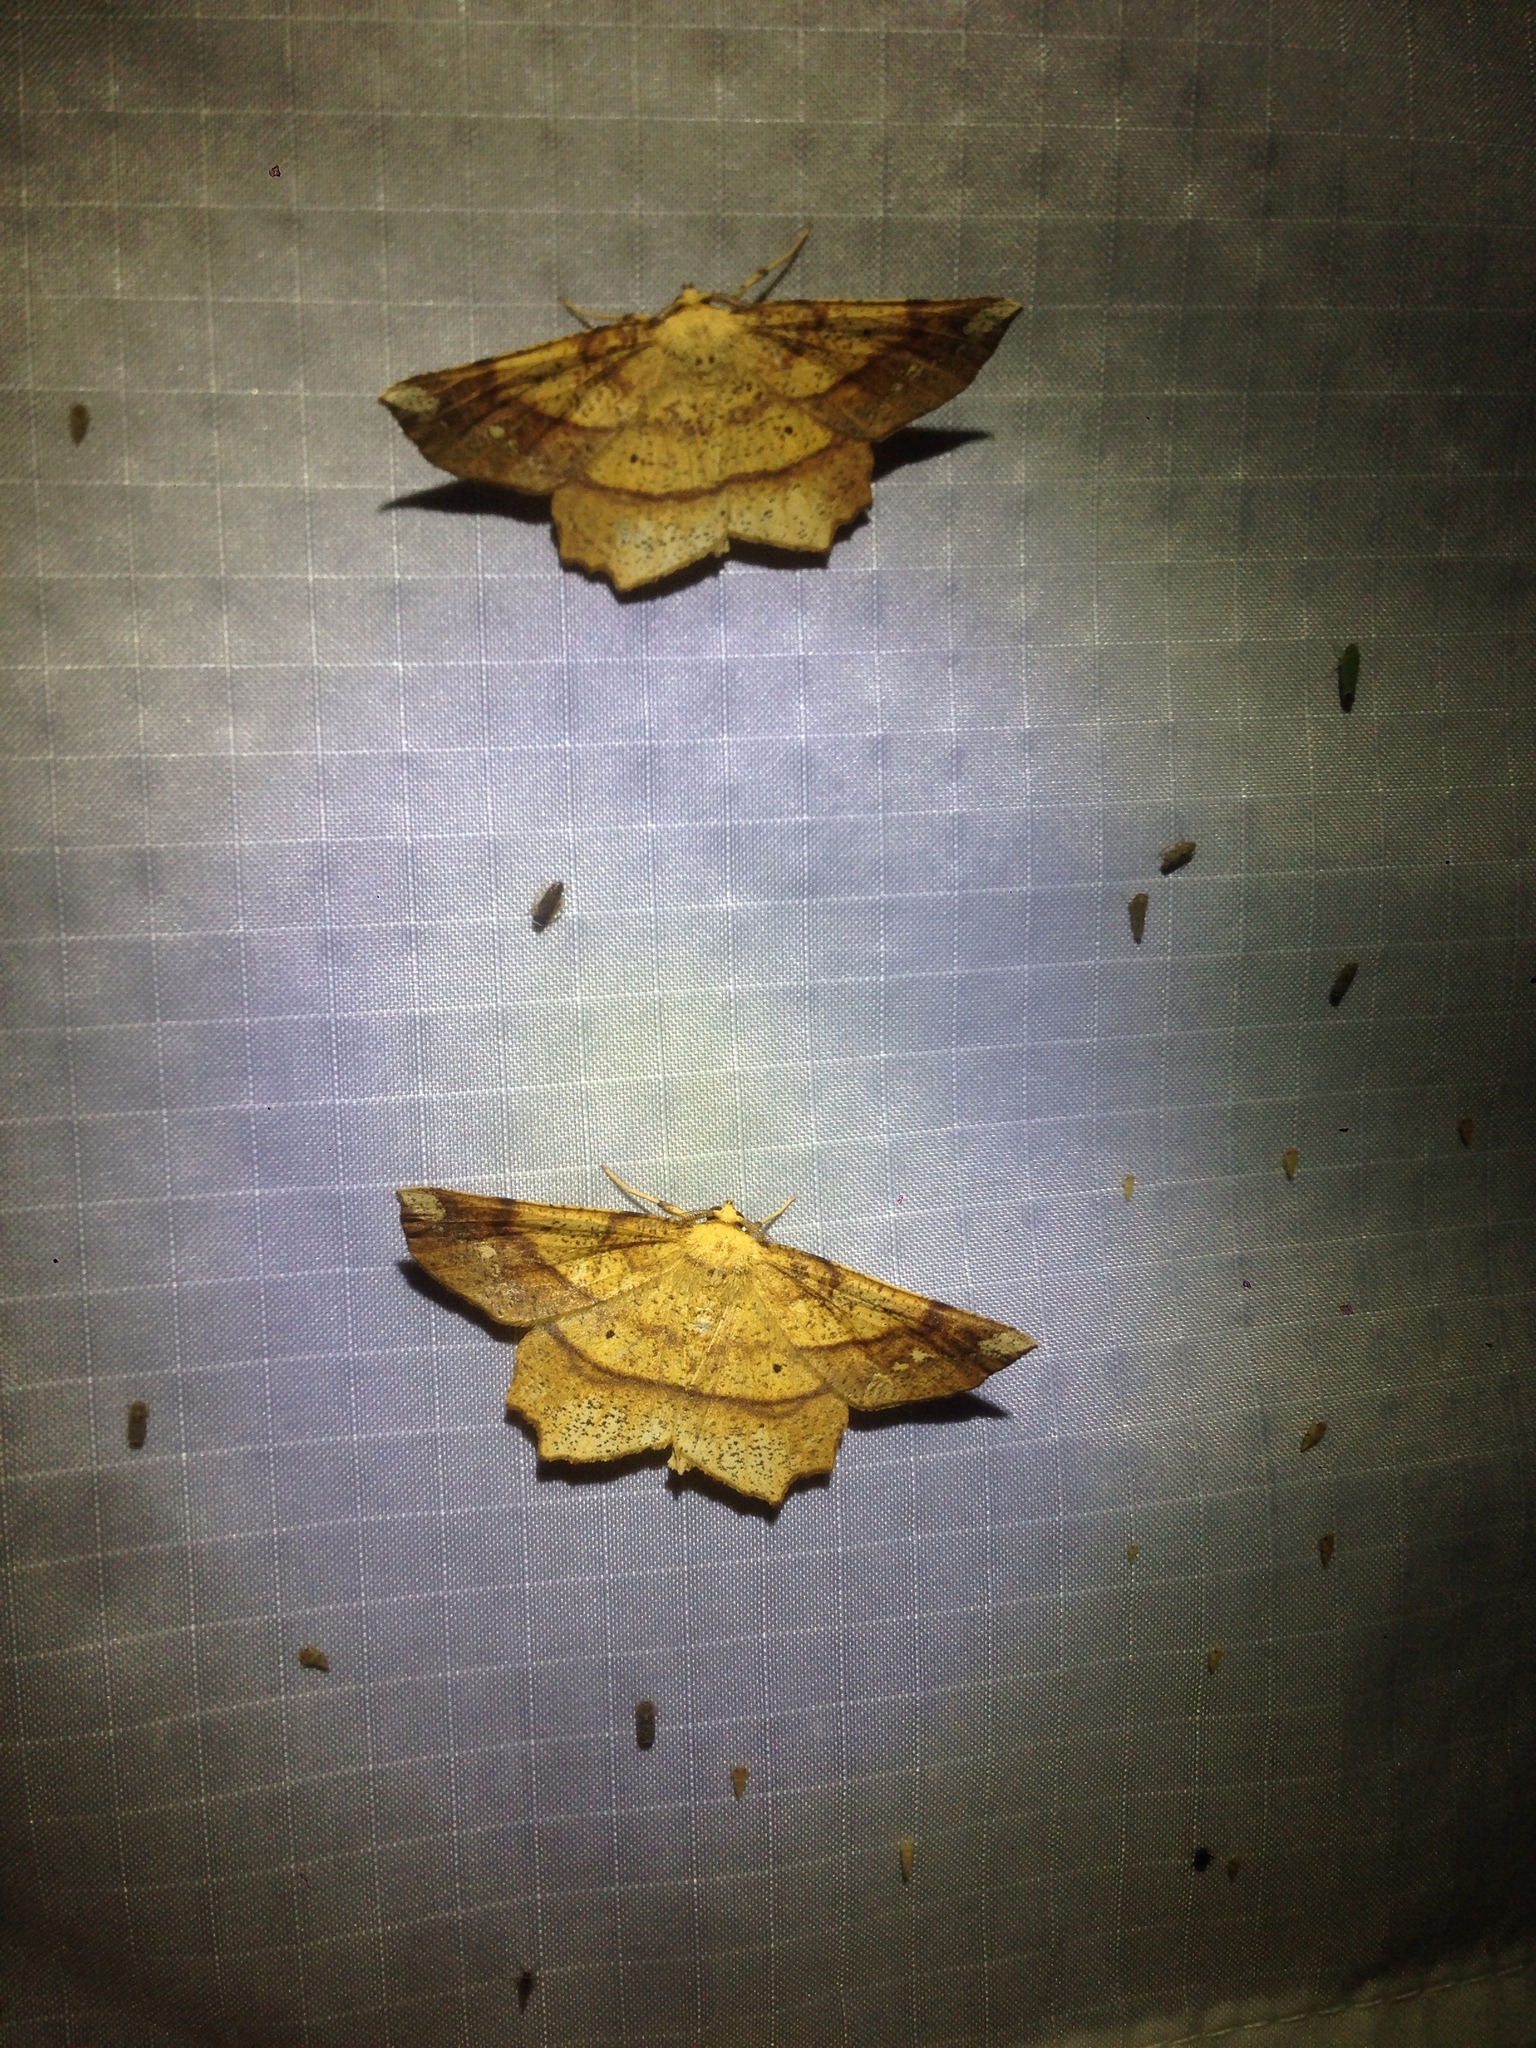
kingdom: Animalia
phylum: Arthropoda
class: Insecta
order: Lepidoptera
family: Geometridae
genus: Euchlaena
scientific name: Euchlaena amoenaria
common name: Deep yellow euchlaena
